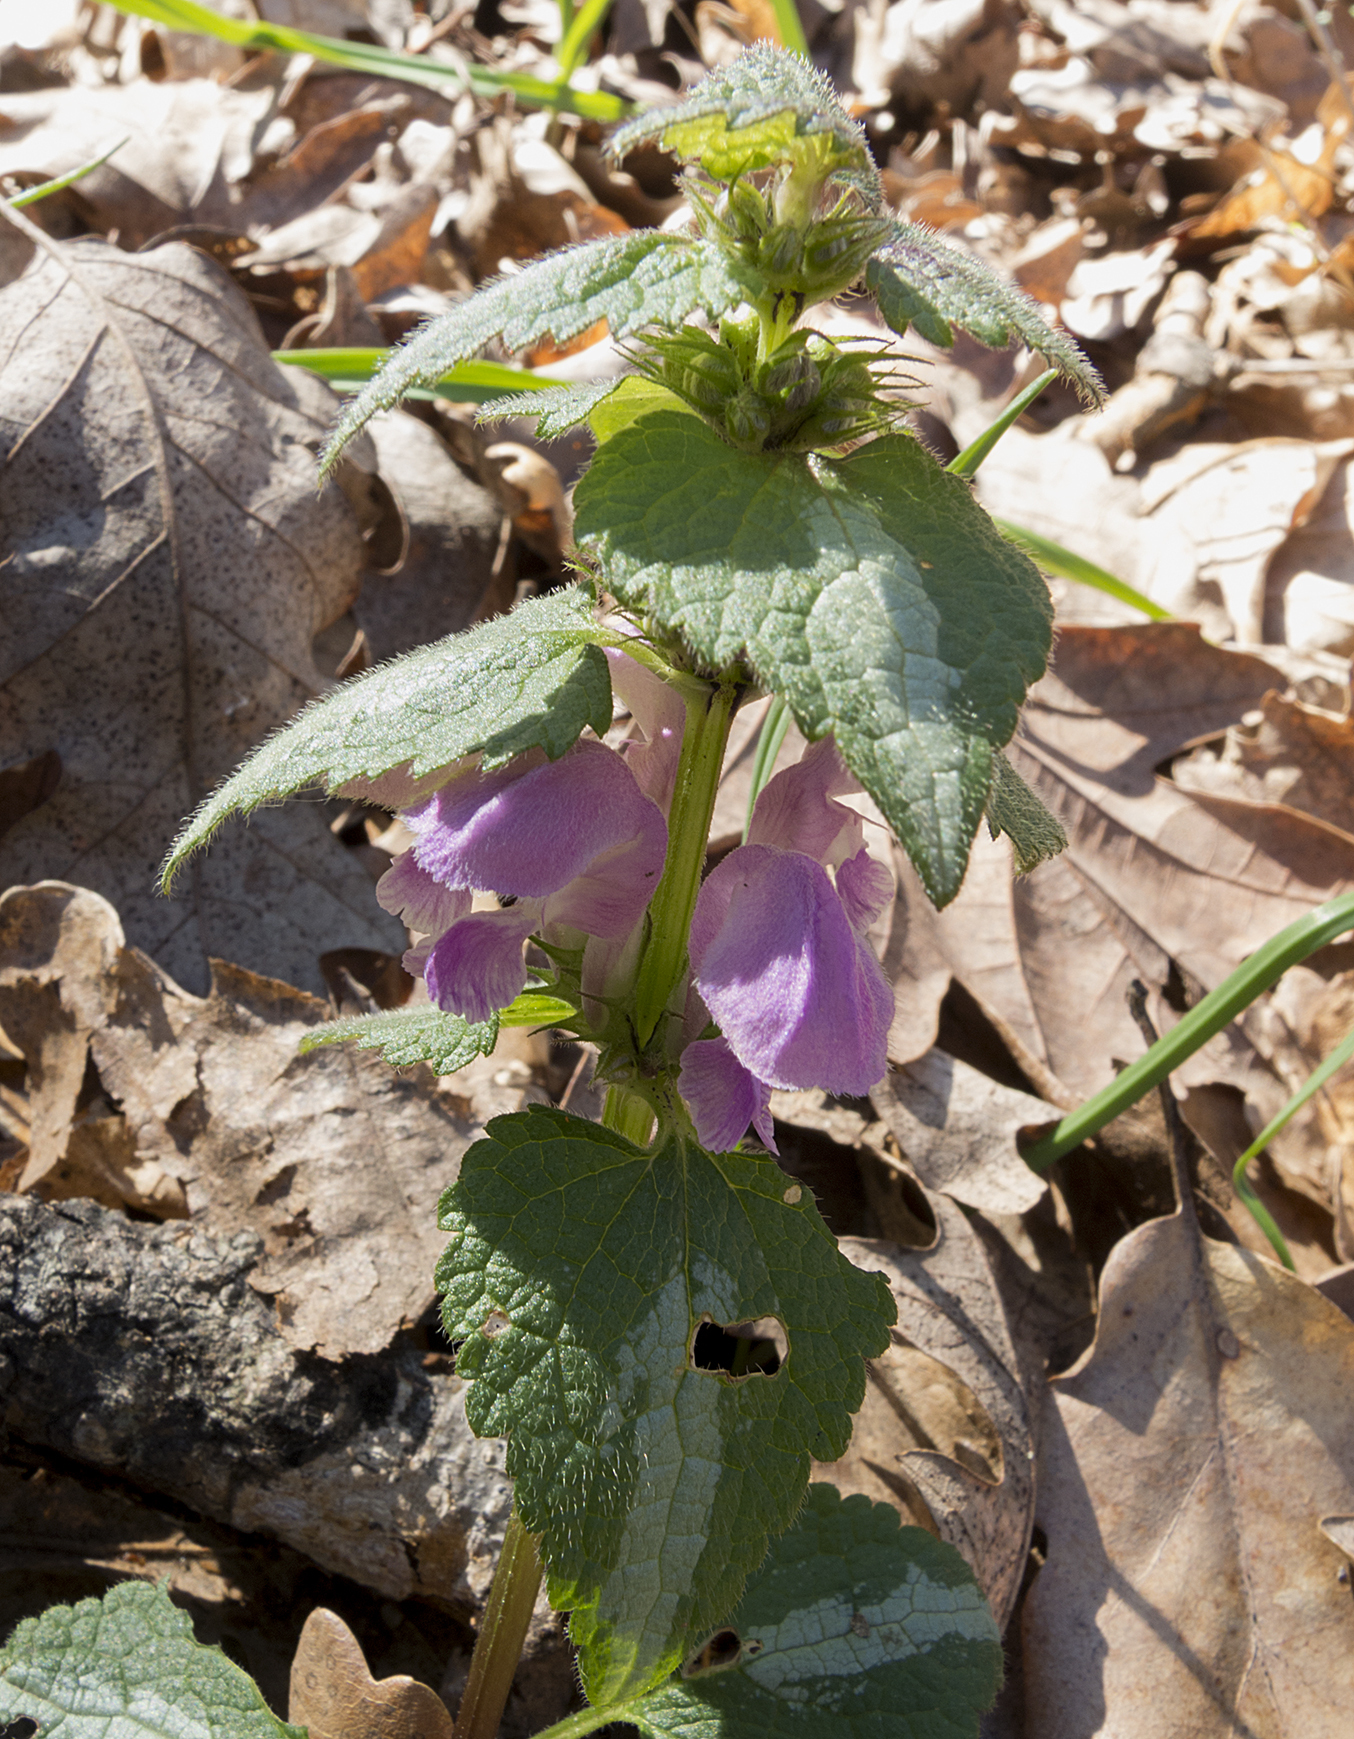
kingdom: Plantae
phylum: Tracheophyta
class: Magnoliopsida
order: Lamiales
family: Lamiaceae
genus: Lamium
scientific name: Lamium maculatum
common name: Spotted dead-nettle
